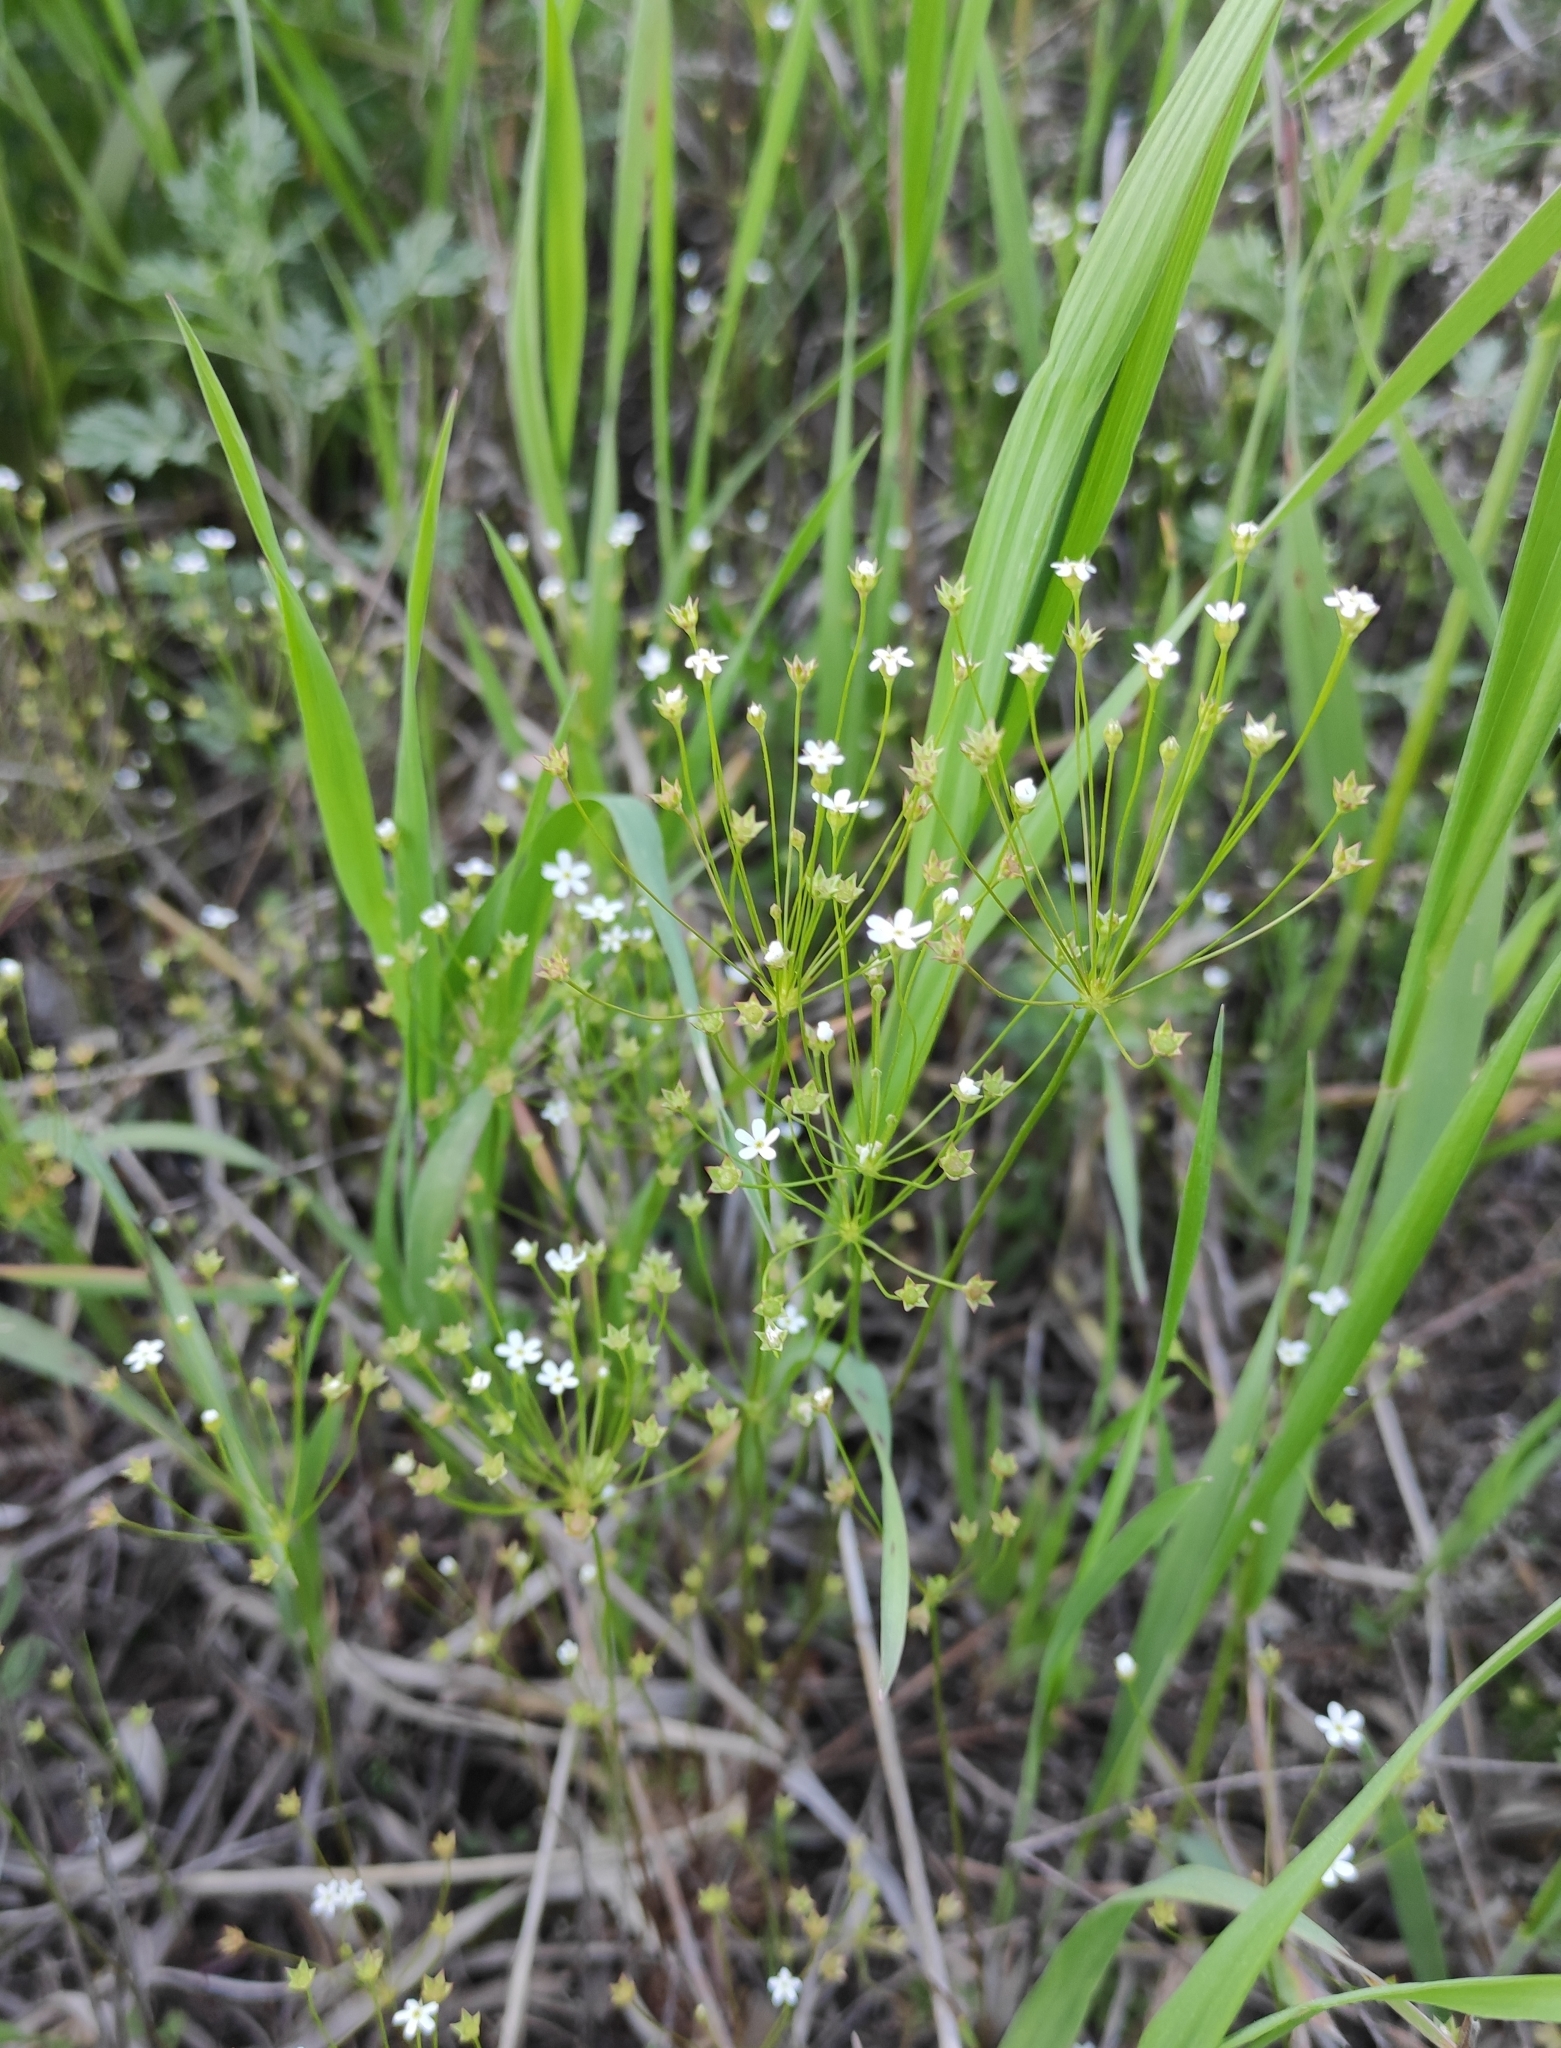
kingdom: Plantae
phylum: Tracheophyta
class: Magnoliopsida
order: Ericales
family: Primulaceae
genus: Androsace
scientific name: Androsace septentrionalis
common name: Hairy northern fairy-candelabra
